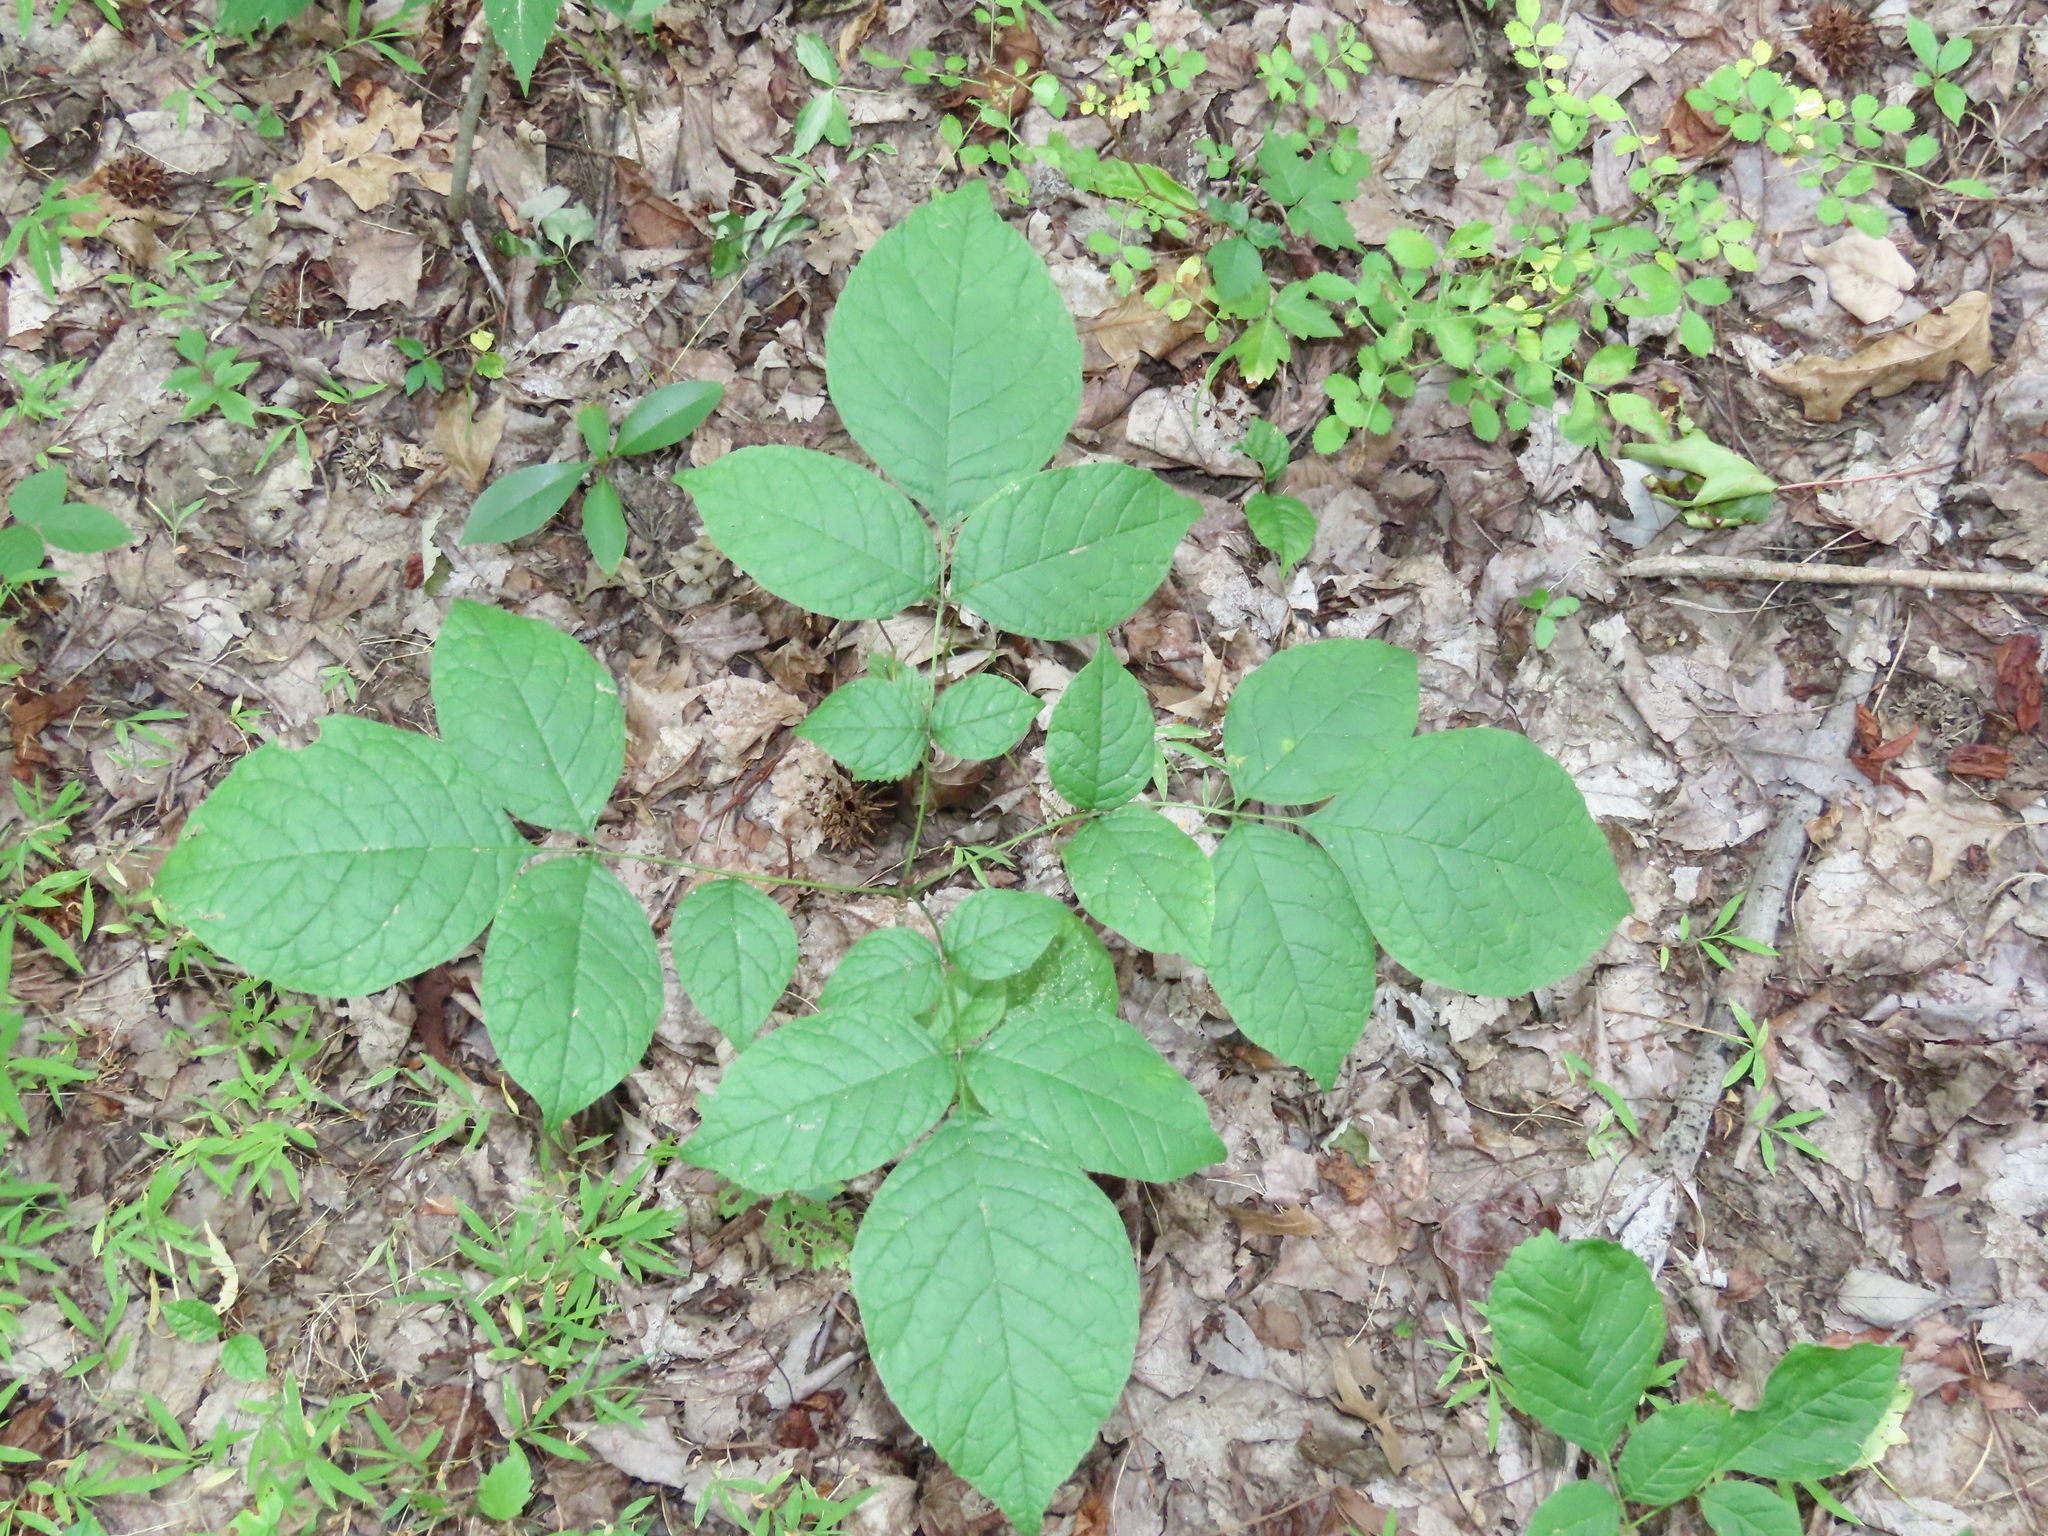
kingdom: Plantae
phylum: Tracheophyta
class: Magnoliopsida
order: Lamiales
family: Oleaceae
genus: Fraxinus
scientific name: Fraxinus americana
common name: White ash
